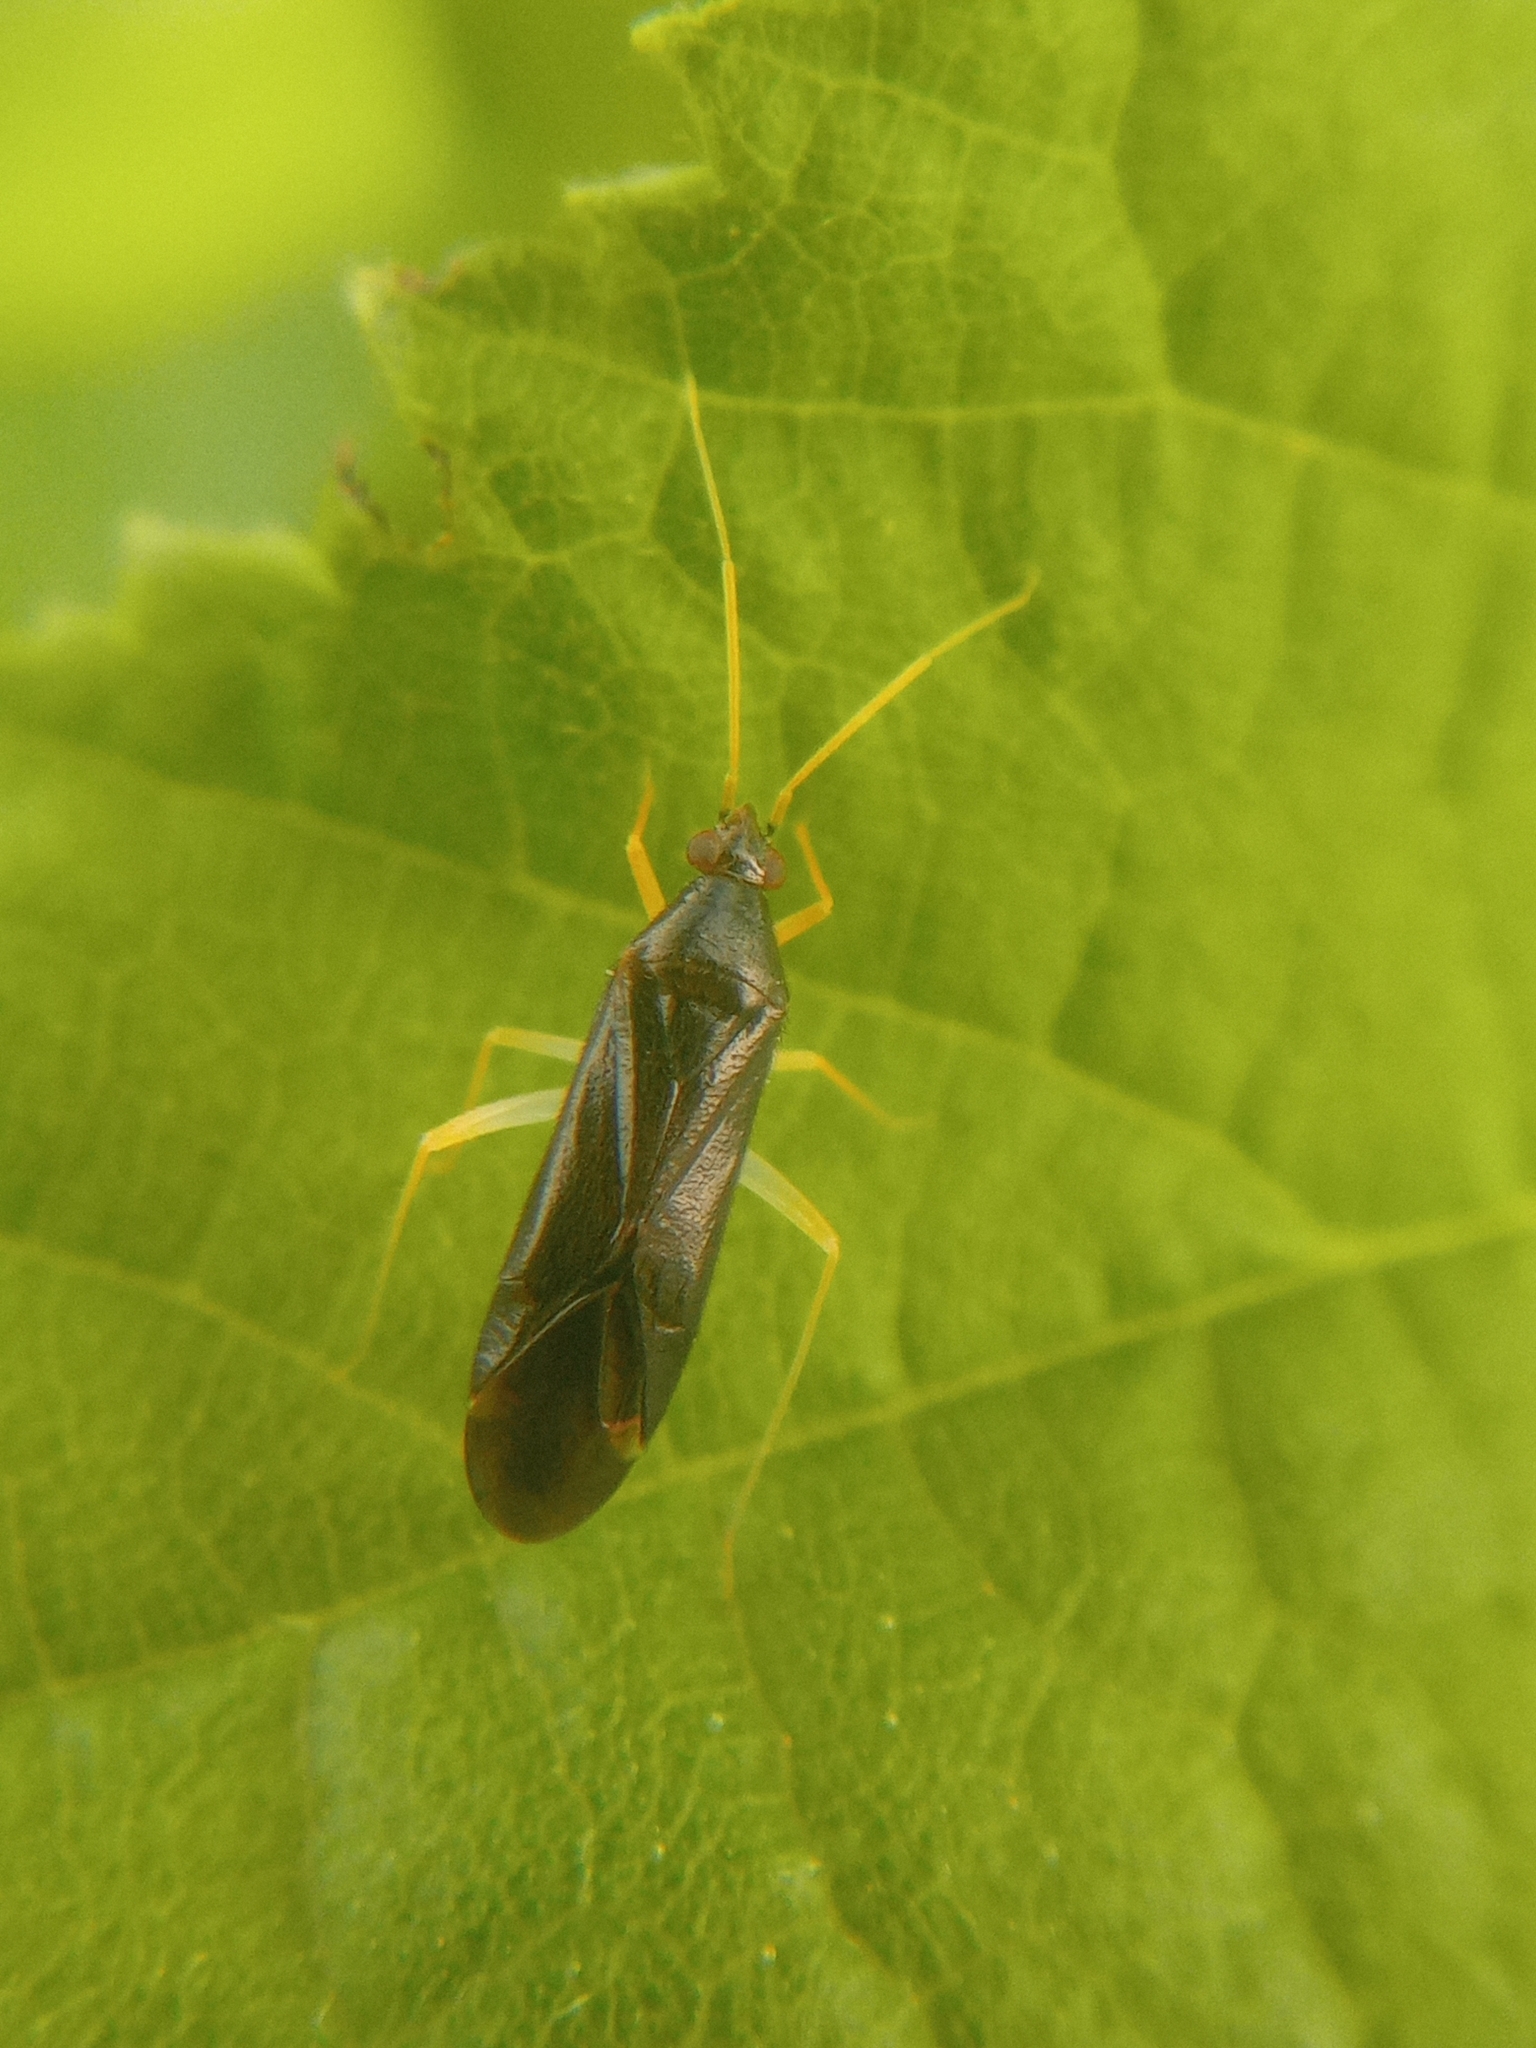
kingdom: Animalia
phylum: Arthropoda
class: Insecta
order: Hemiptera
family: Miridae
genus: Phylus
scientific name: Phylus coryli
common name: Plant bug
